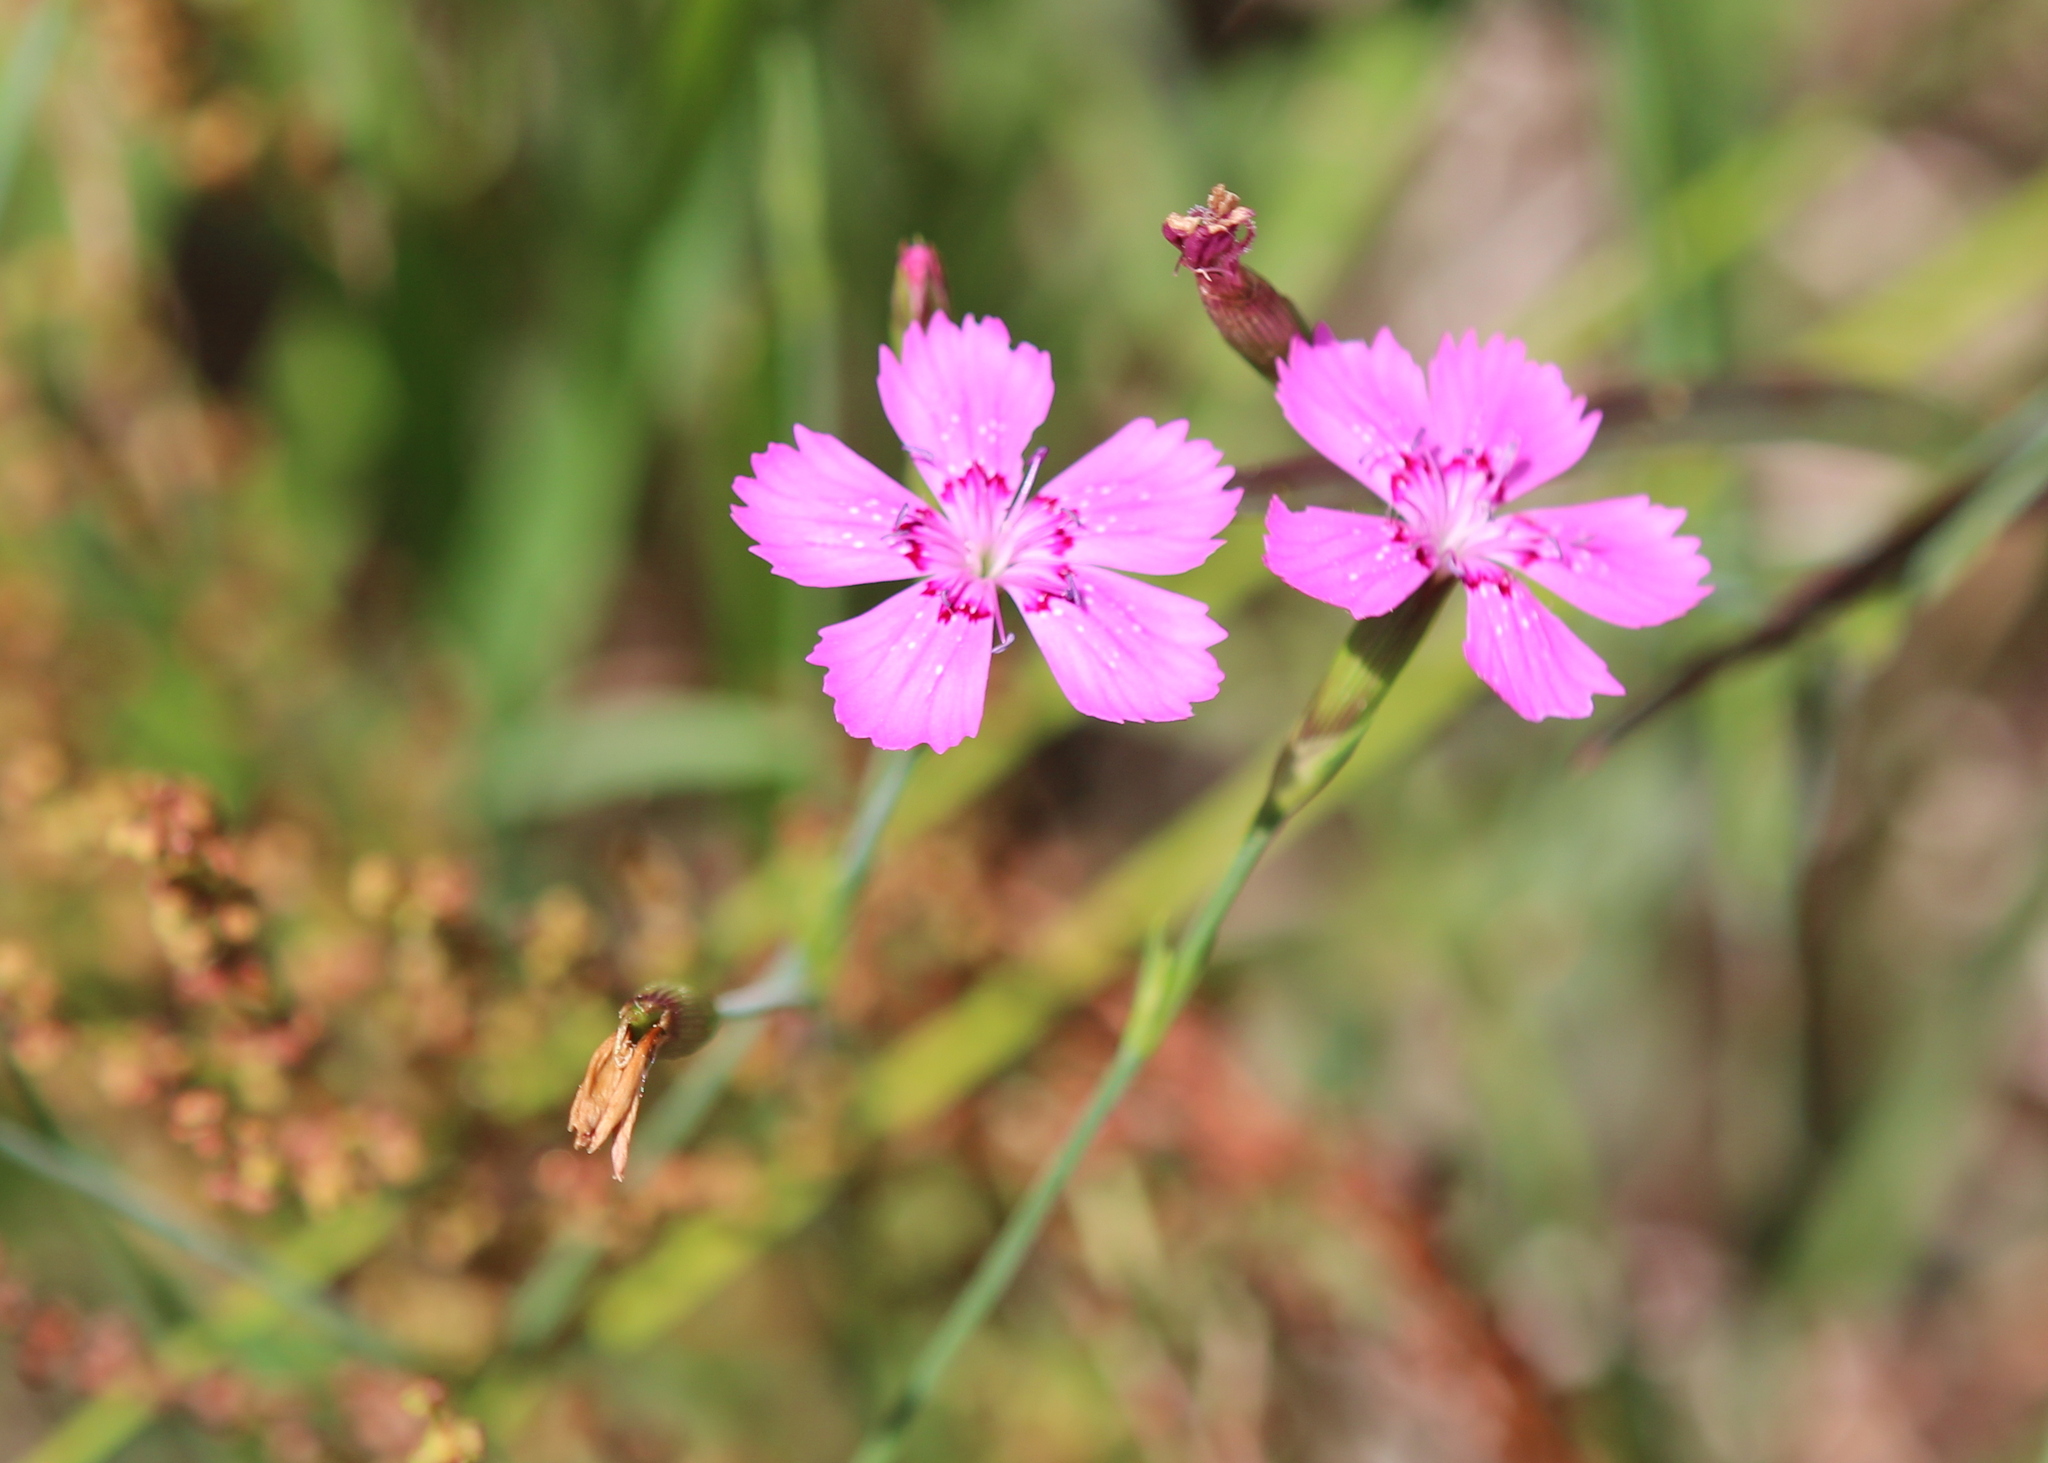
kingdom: Plantae
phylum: Tracheophyta
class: Magnoliopsida
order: Caryophyllales
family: Caryophyllaceae
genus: Dianthus
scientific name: Dianthus deltoides
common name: Maiden pink
